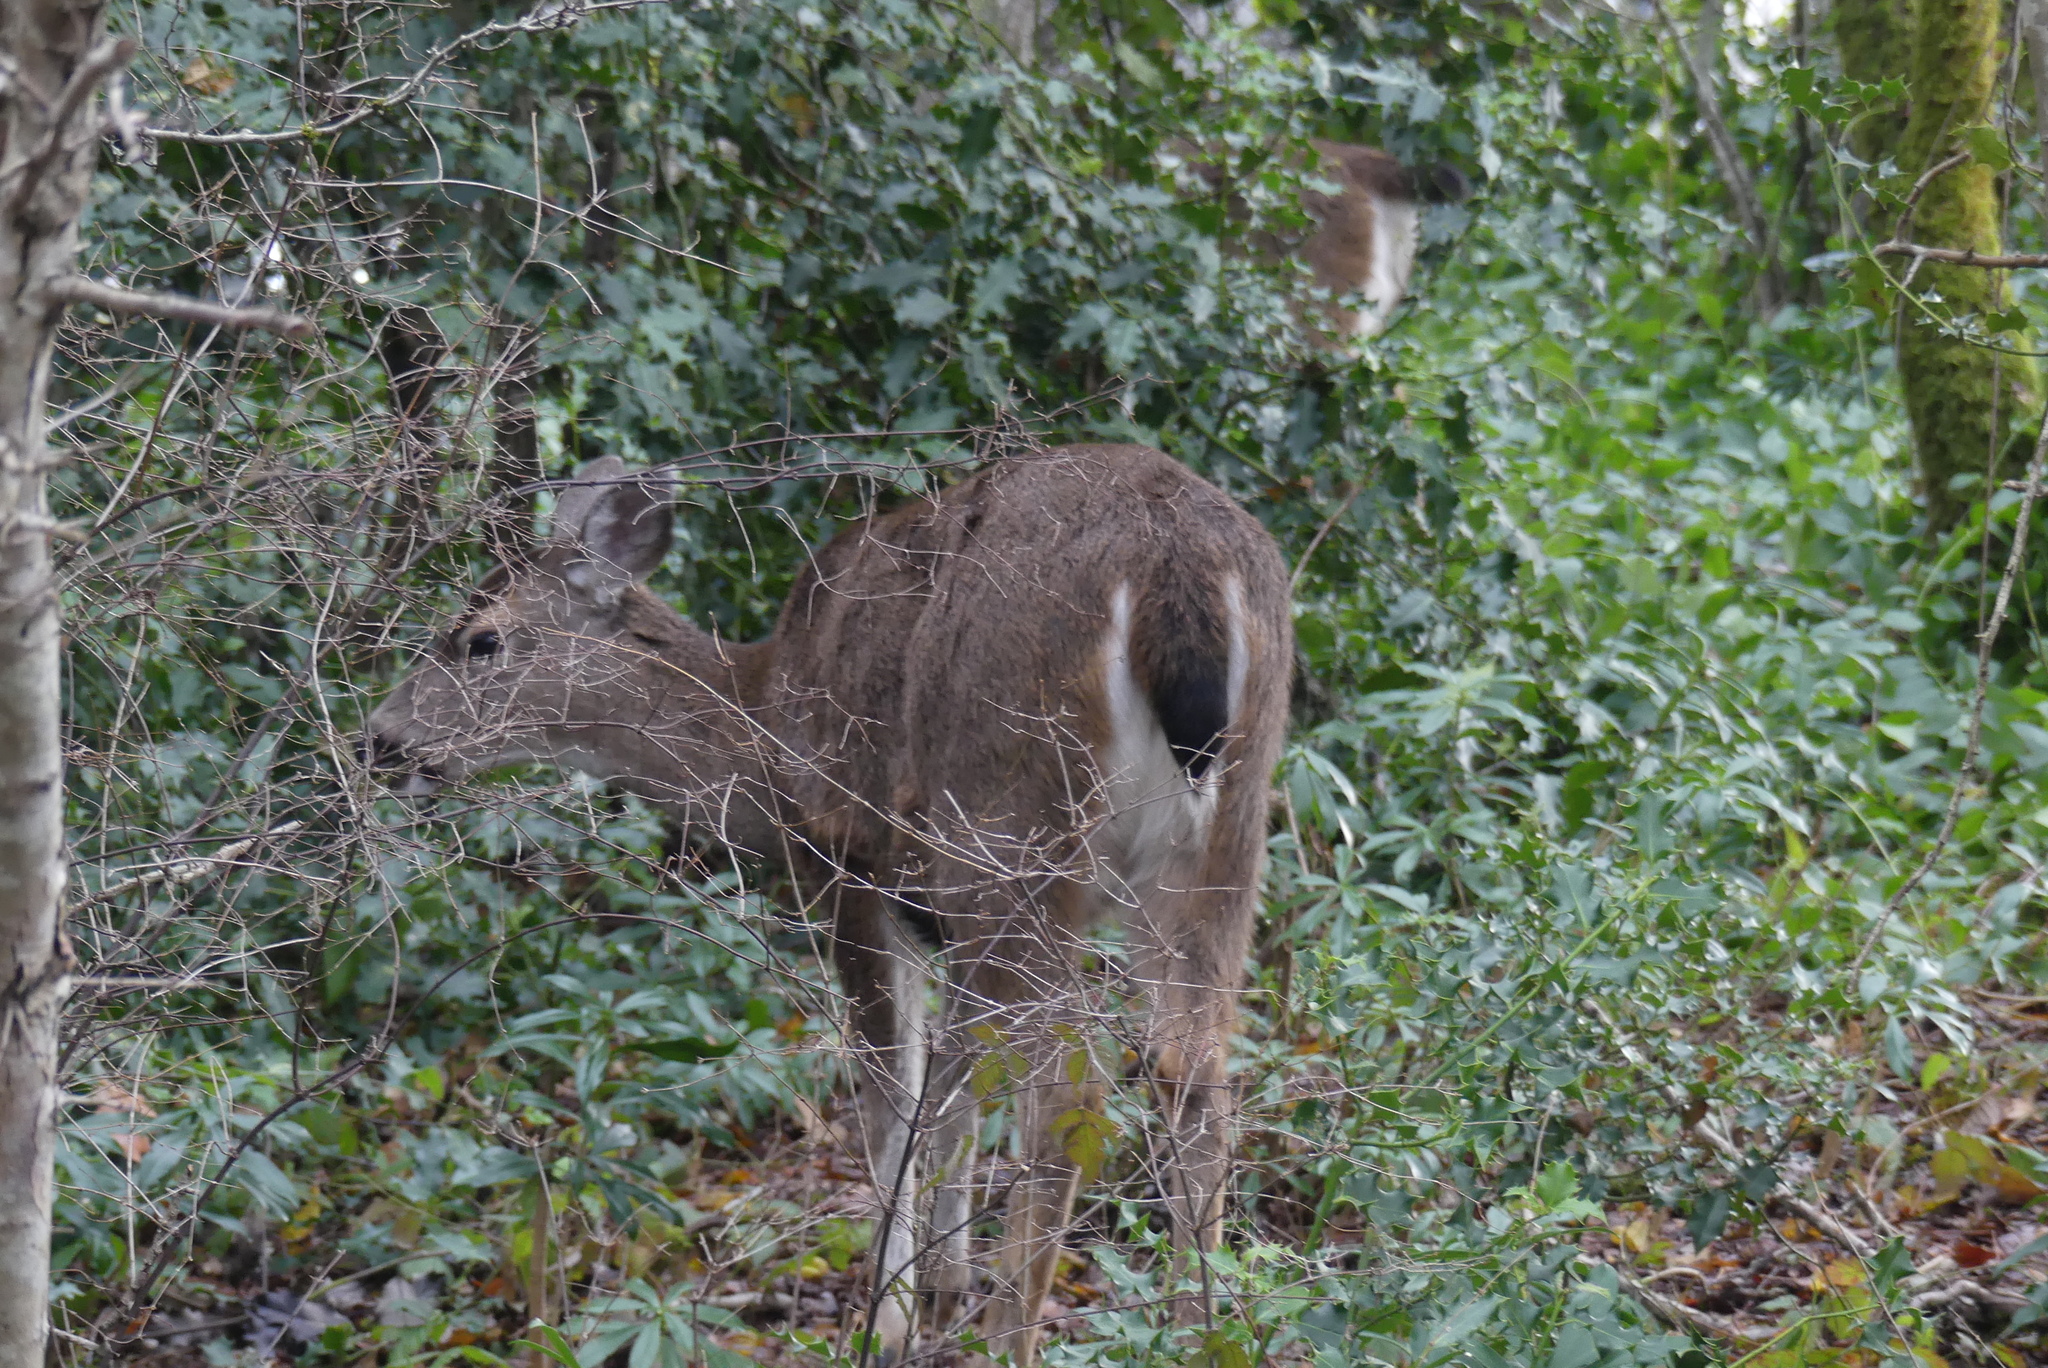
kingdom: Animalia
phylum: Chordata
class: Mammalia
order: Artiodactyla
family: Cervidae
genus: Odocoileus
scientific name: Odocoileus hemionus
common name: Mule deer
